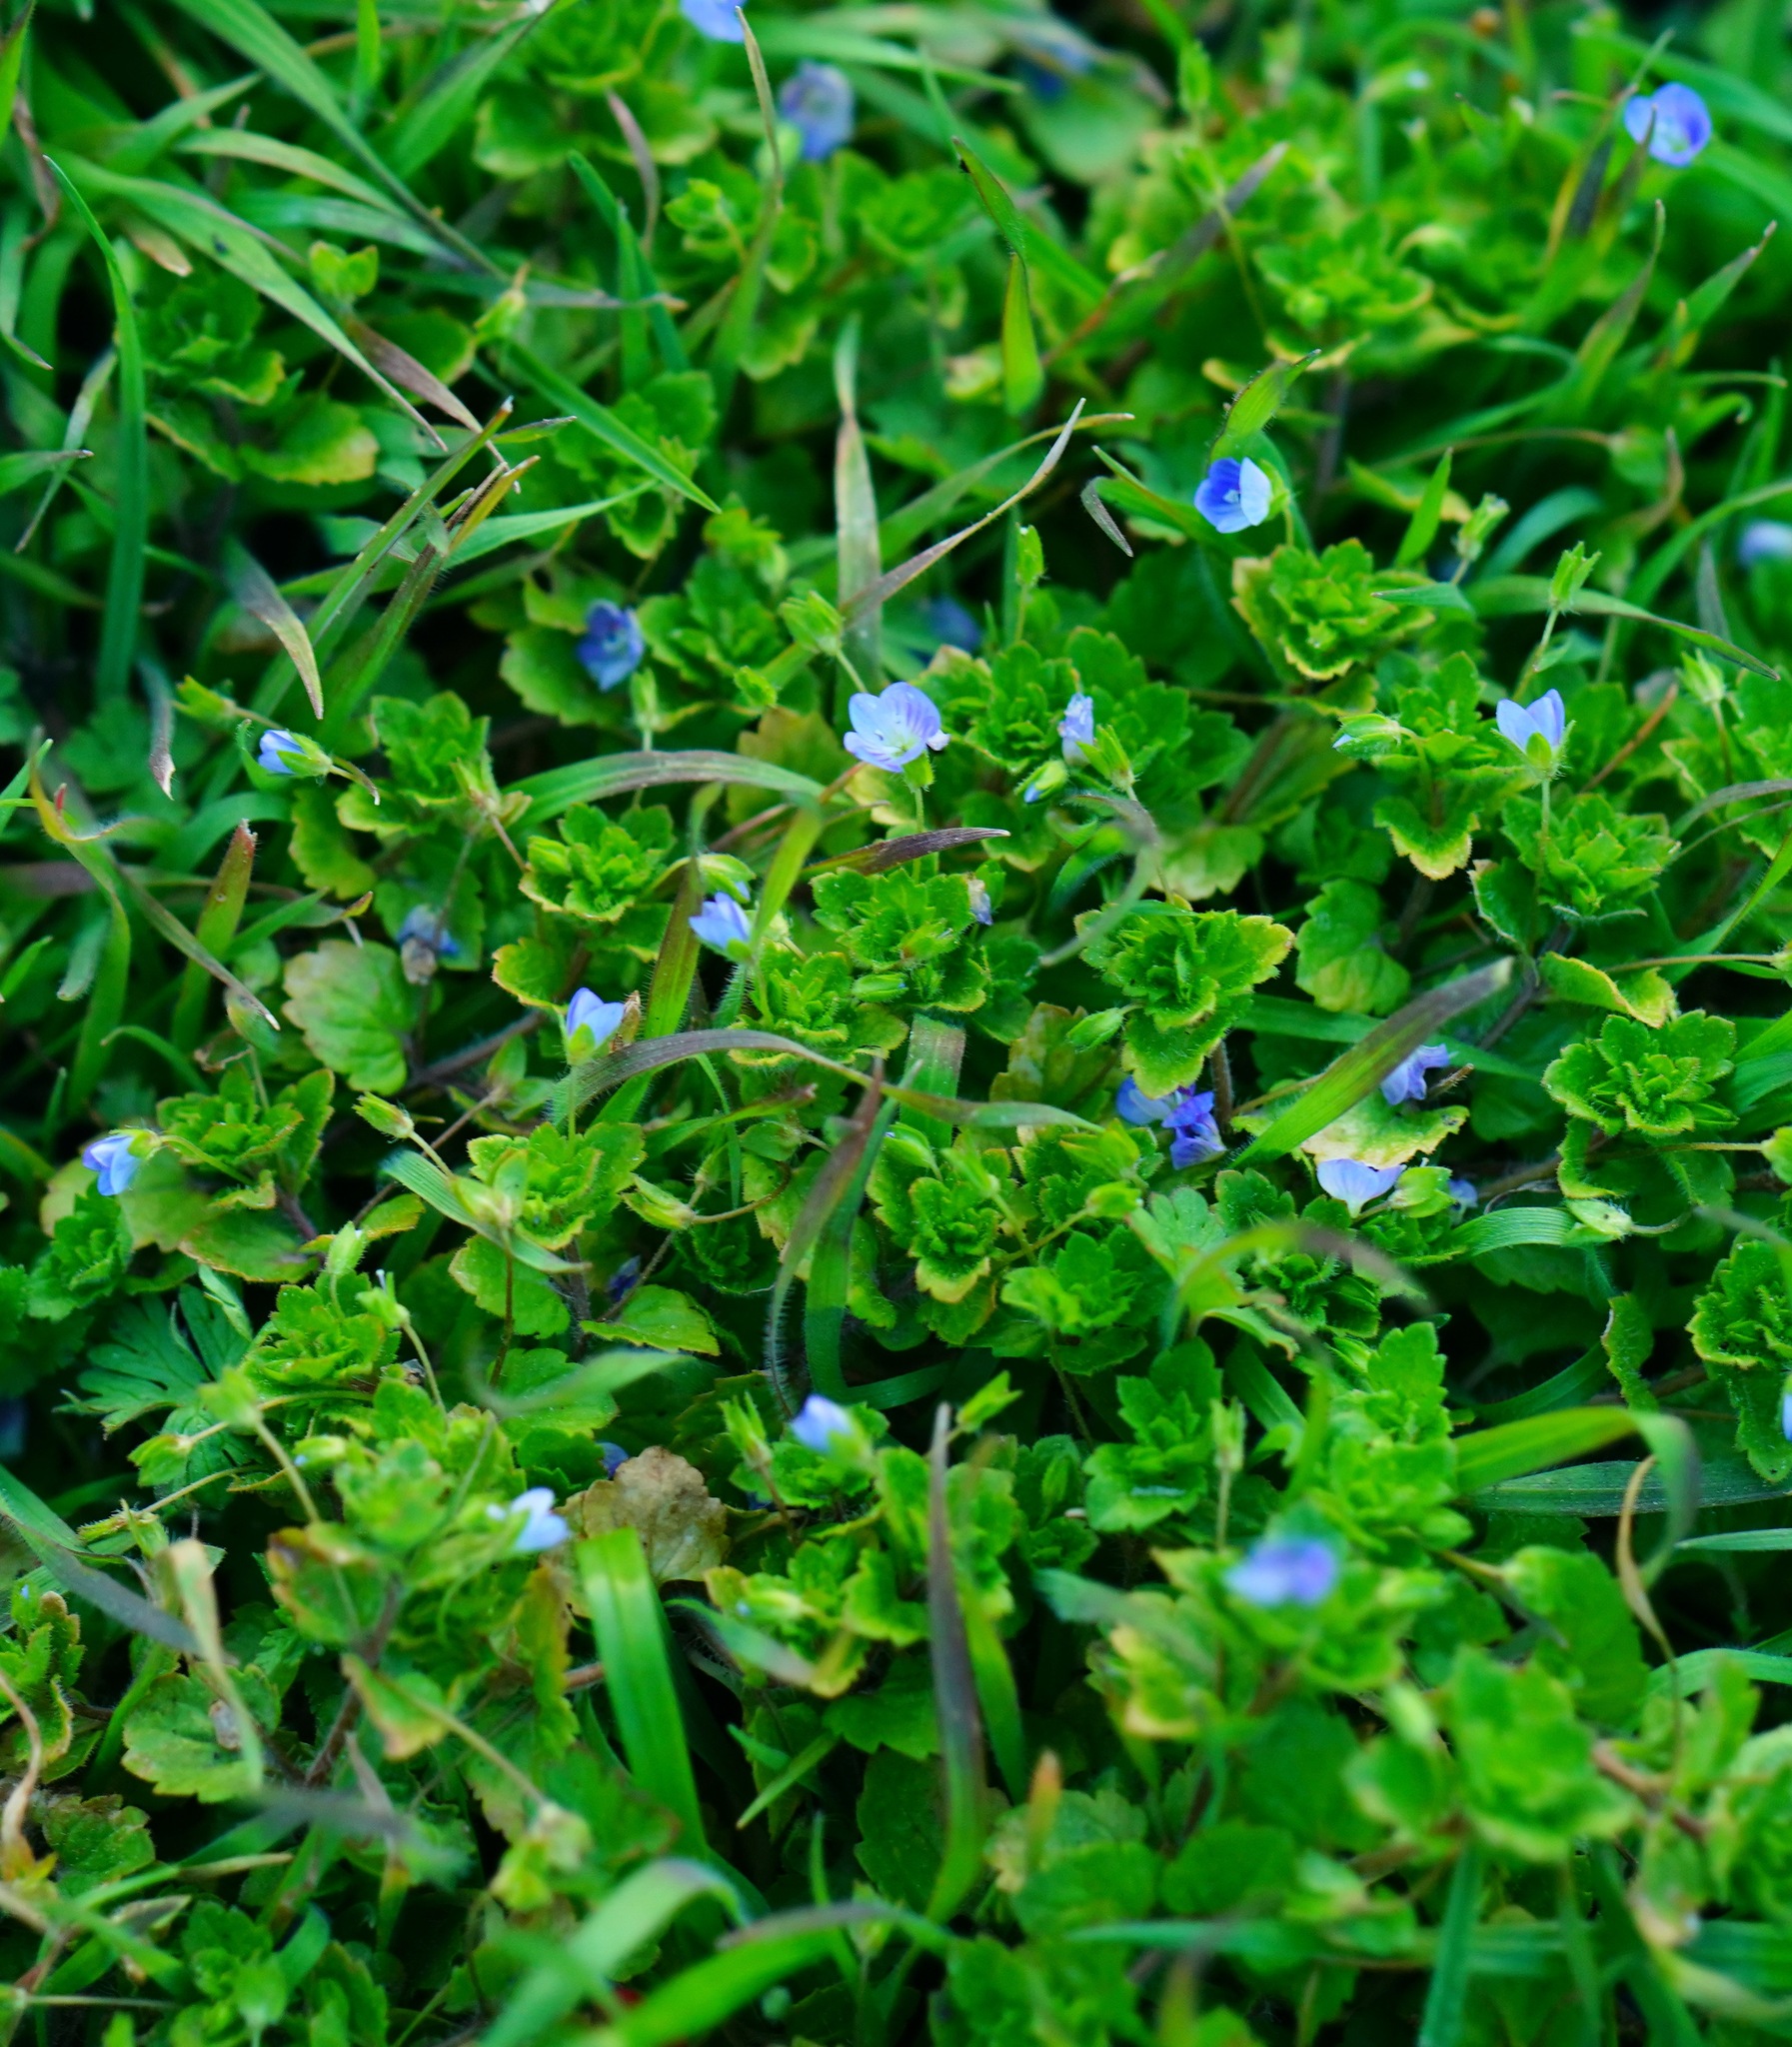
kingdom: Plantae
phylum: Tracheophyta
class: Magnoliopsida
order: Lamiales
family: Plantaginaceae
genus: Veronica
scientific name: Veronica persica
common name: Common field-speedwell
